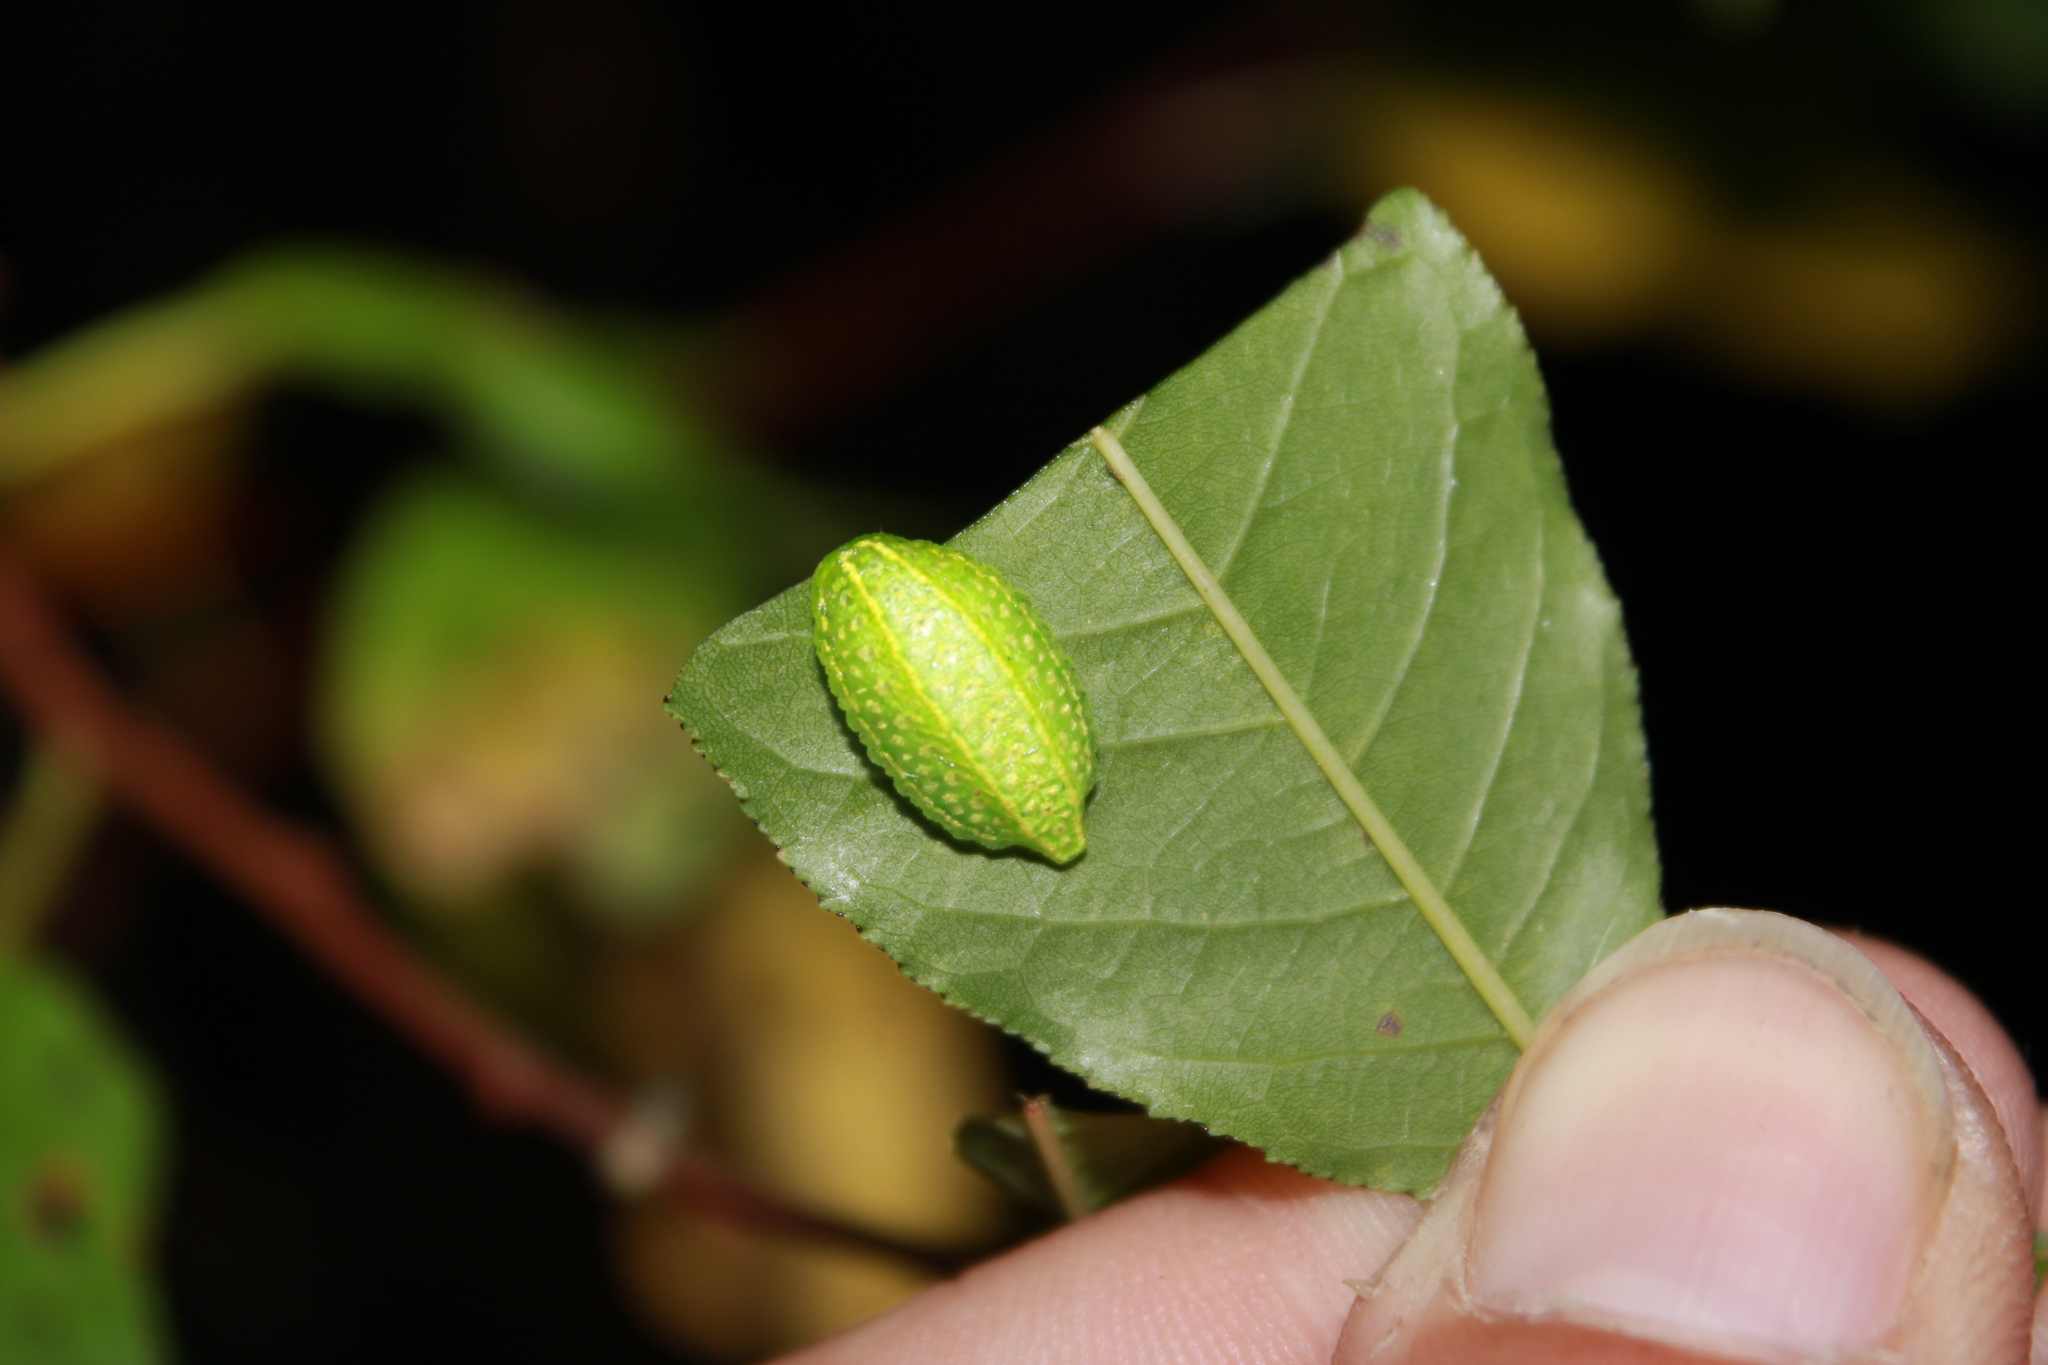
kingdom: Animalia
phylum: Arthropoda
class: Insecta
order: Lepidoptera
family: Limacodidae
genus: Lithacodes
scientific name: Lithacodes fasciola
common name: Yellow-shouldered slug moth
